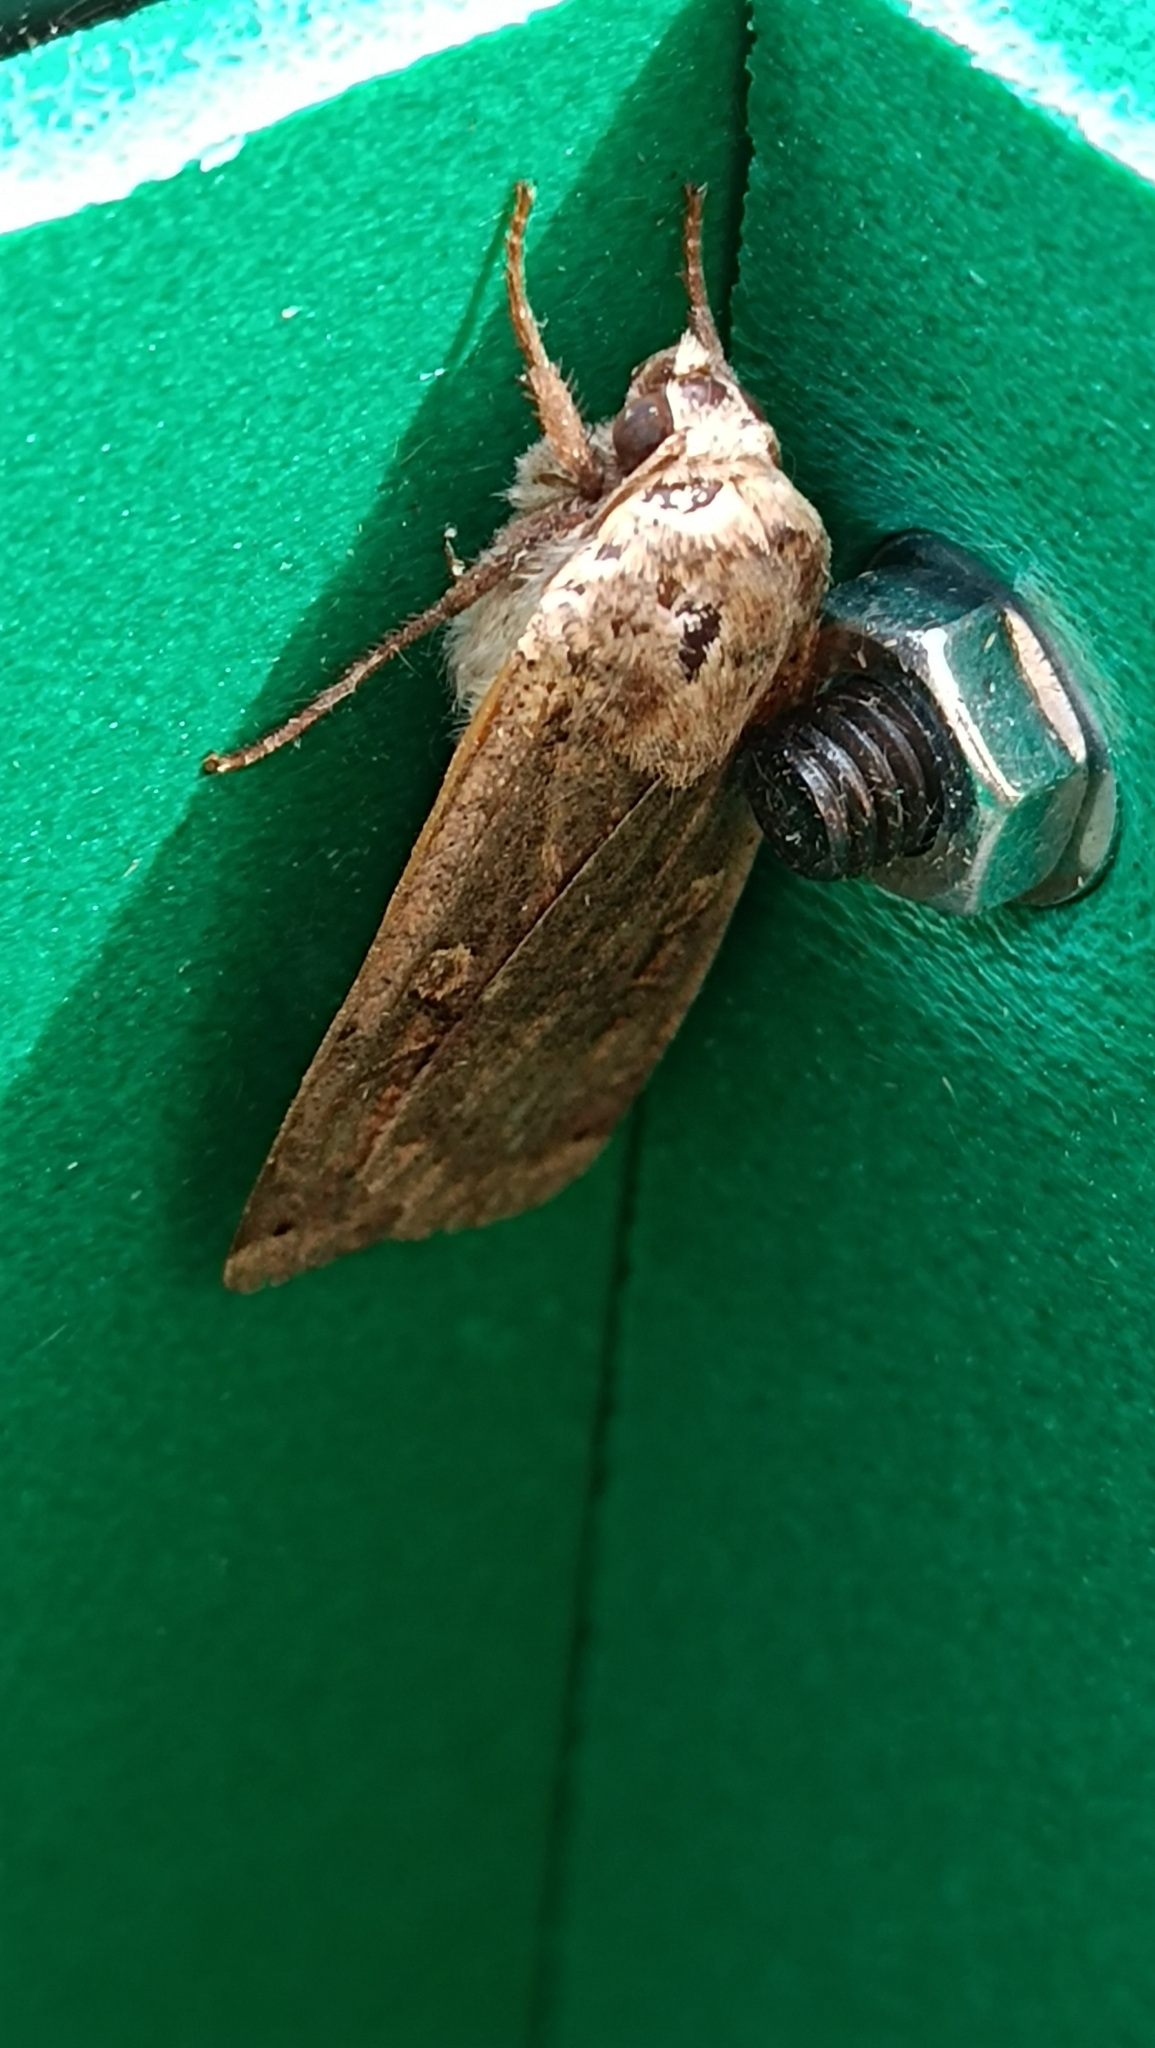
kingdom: Animalia
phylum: Arthropoda
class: Insecta
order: Lepidoptera
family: Noctuidae
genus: Noctua
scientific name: Noctua pronuba
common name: Large yellow underwing
